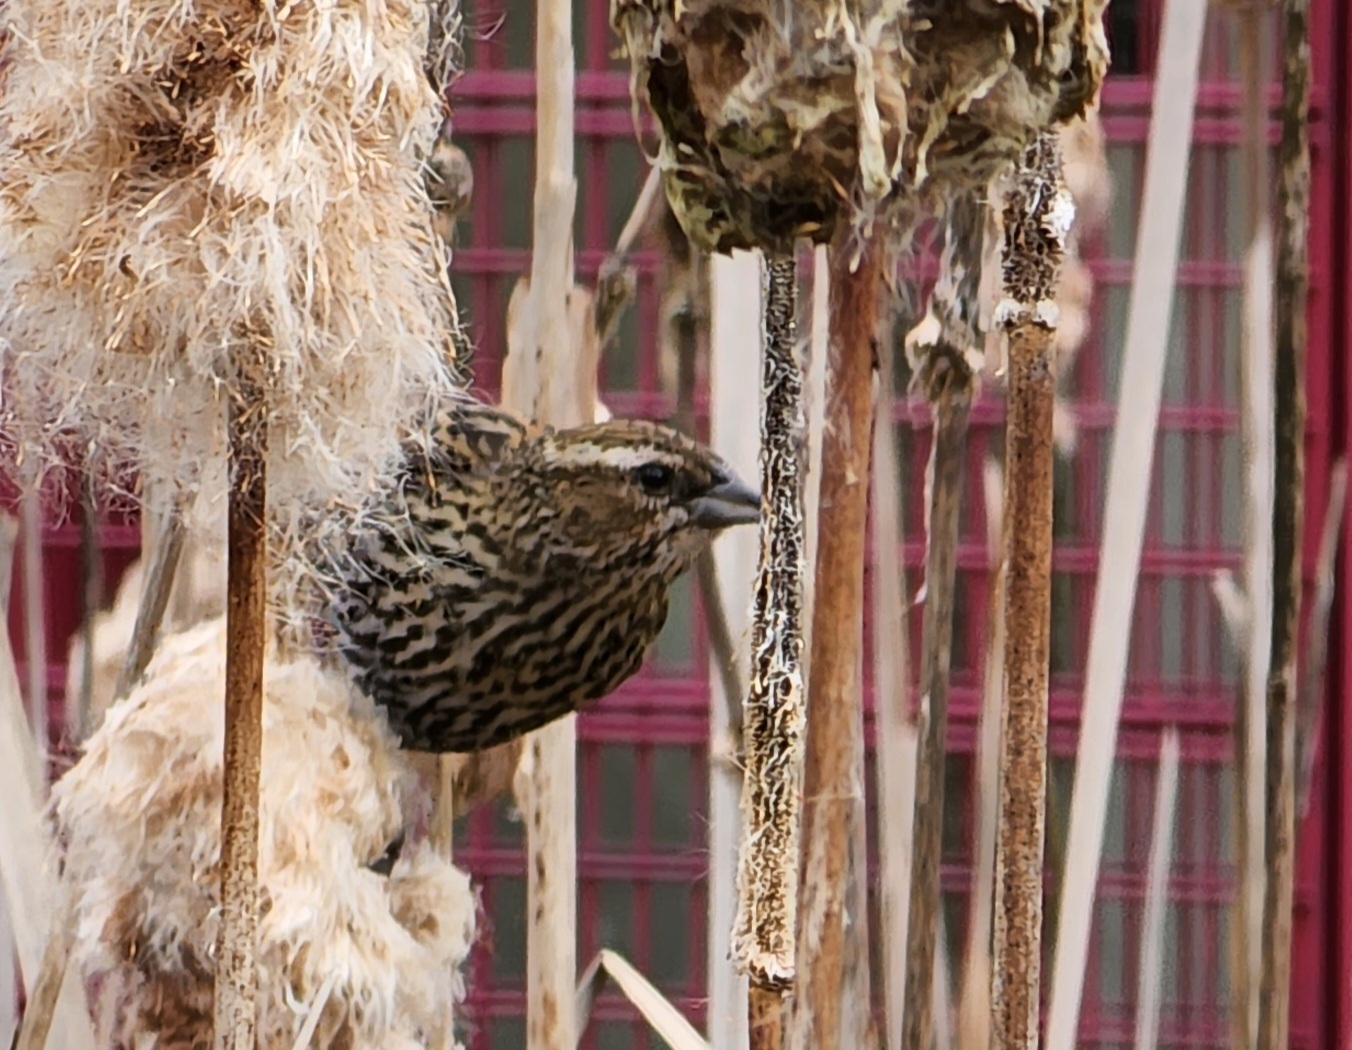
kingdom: Animalia
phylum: Chordata
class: Aves
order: Passeriformes
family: Icteridae
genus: Agelaius
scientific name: Agelaius phoeniceus
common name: Red-winged blackbird
